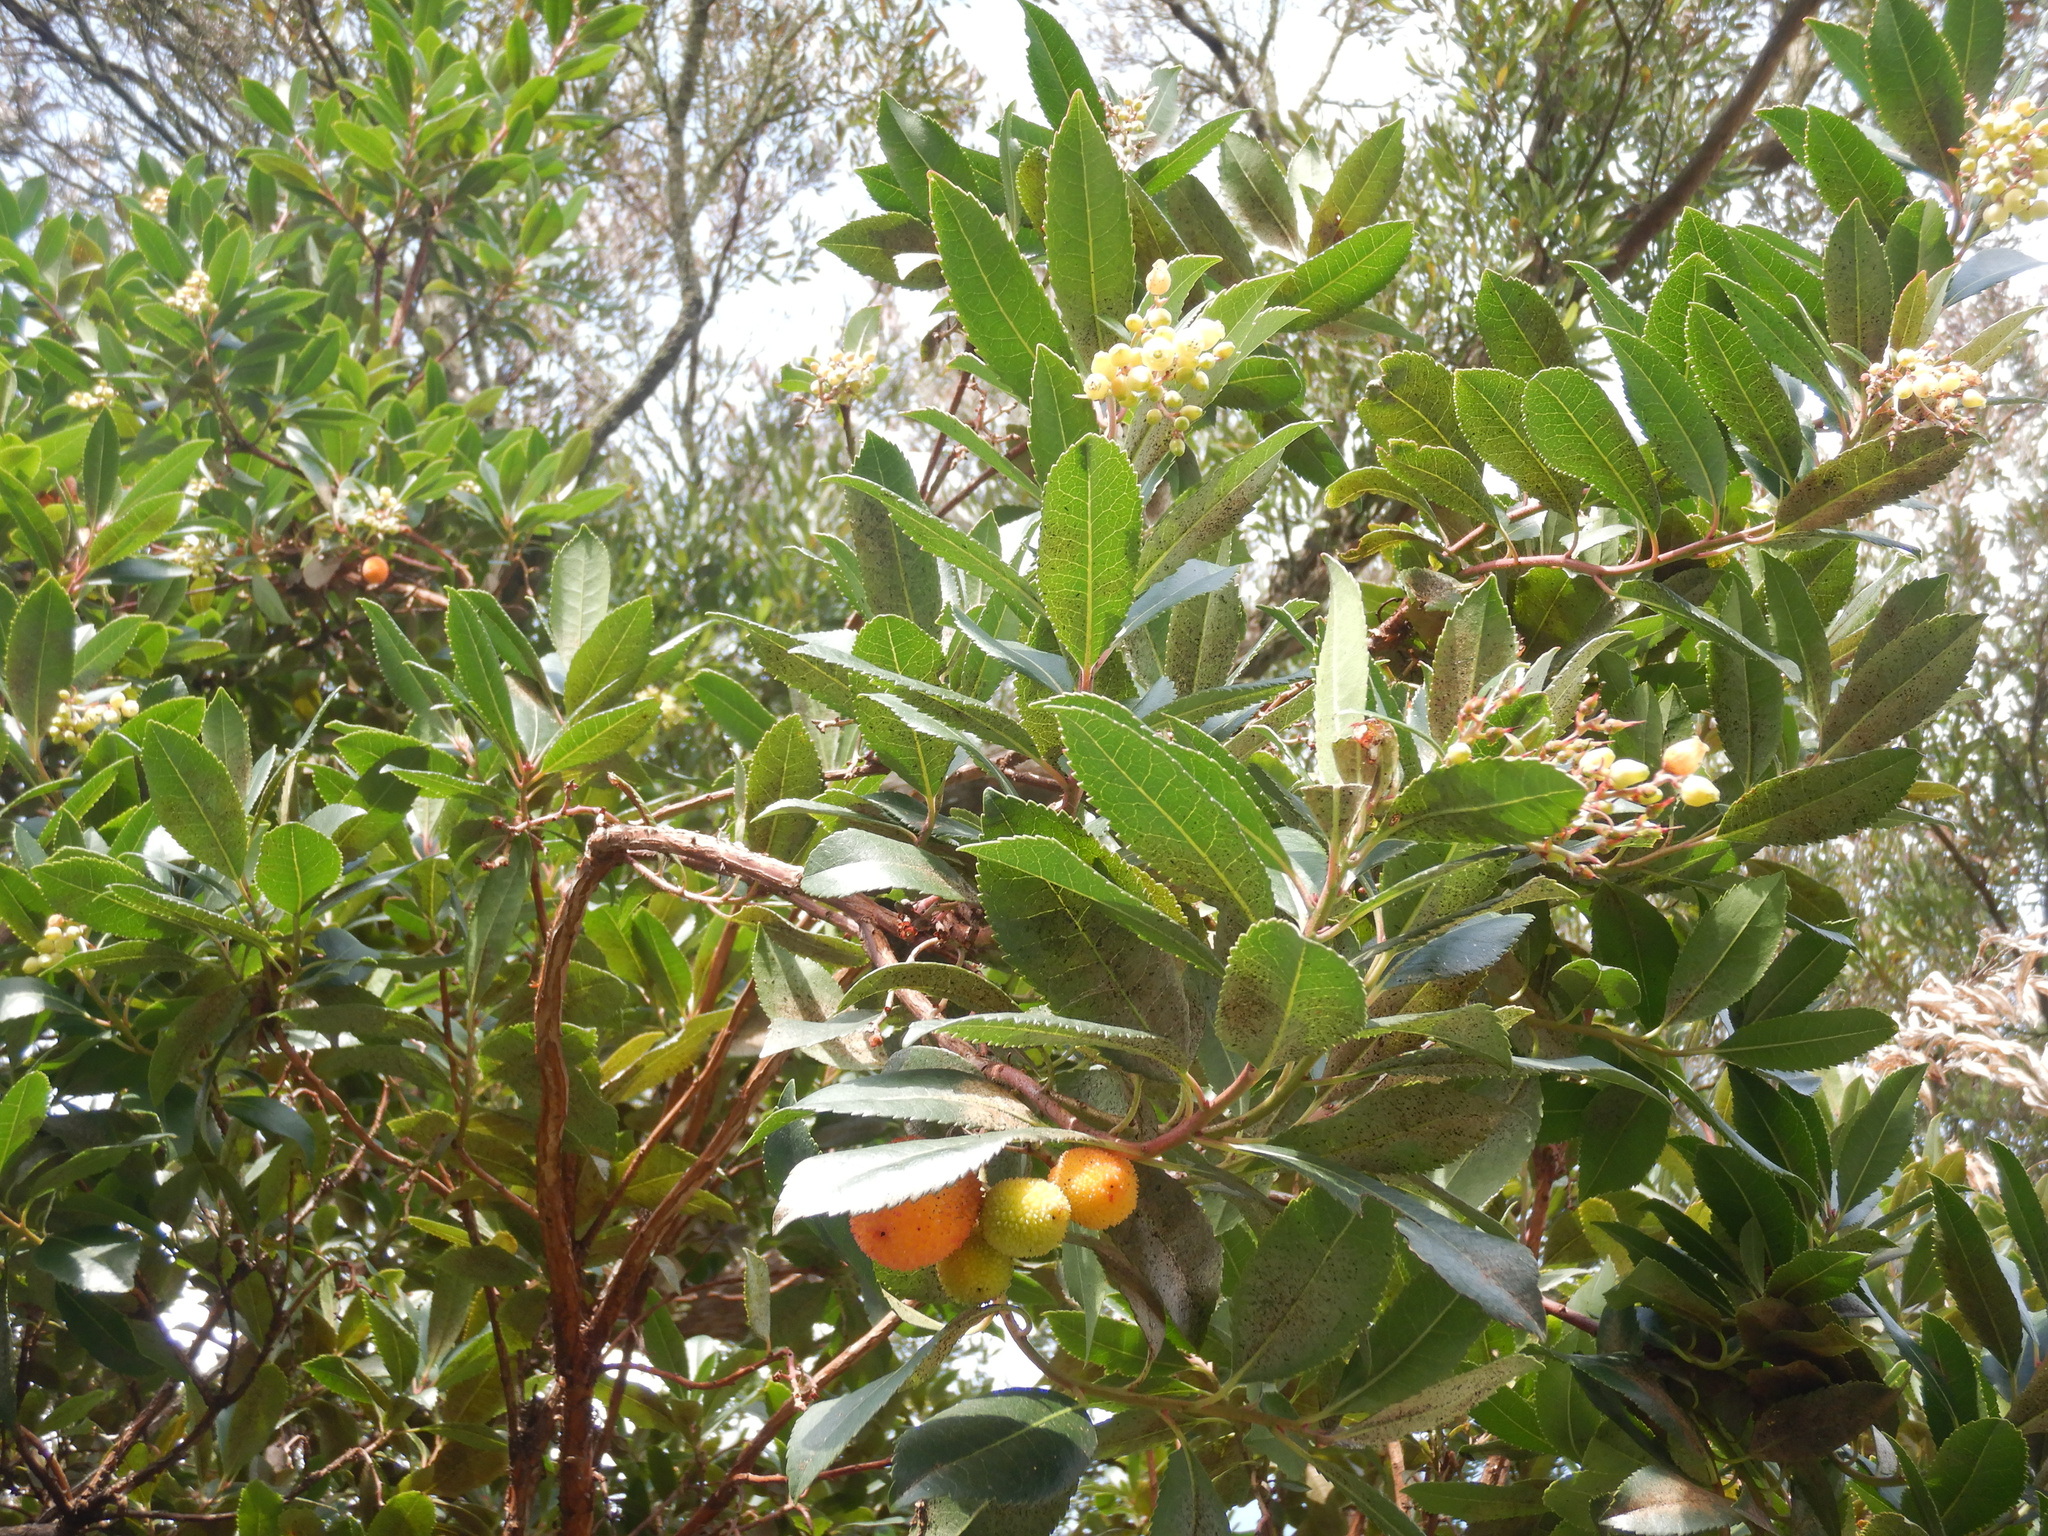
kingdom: Plantae
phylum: Tracheophyta
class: Magnoliopsida
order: Ericales
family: Ericaceae
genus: Arbutus
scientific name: Arbutus unedo
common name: Strawberry-tree
